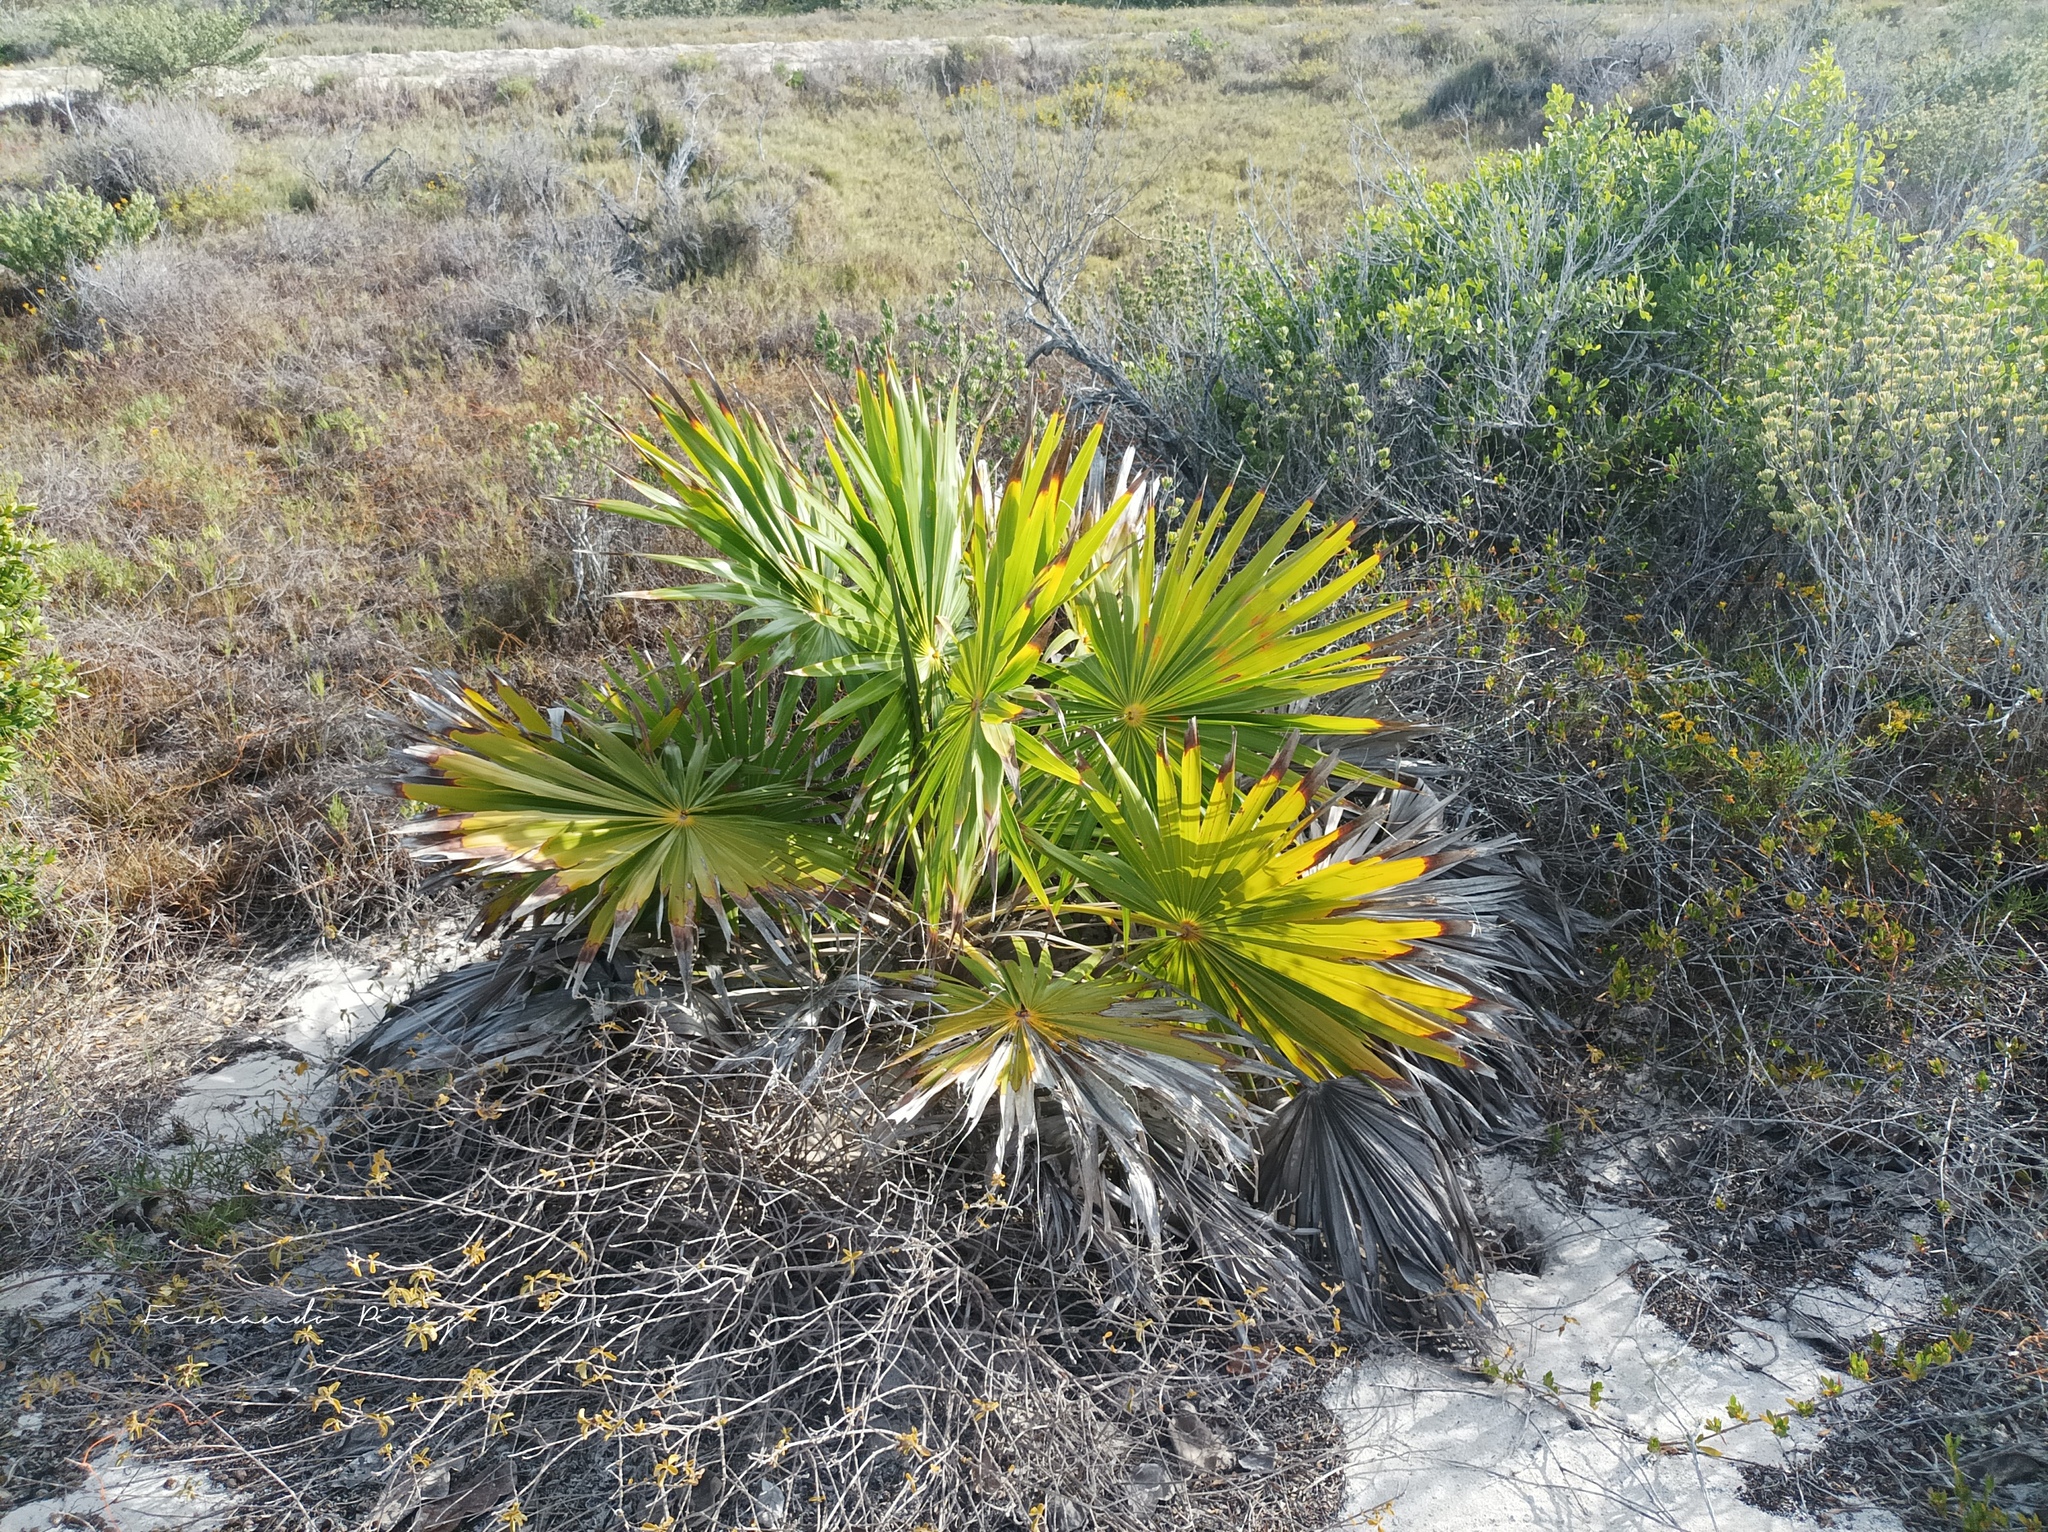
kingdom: Plantae
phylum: Tracheophyta
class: Liliopsida
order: Arecales
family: Arecaceae
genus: Thrinax
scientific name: Thrinax radiata
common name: Florida thatch
